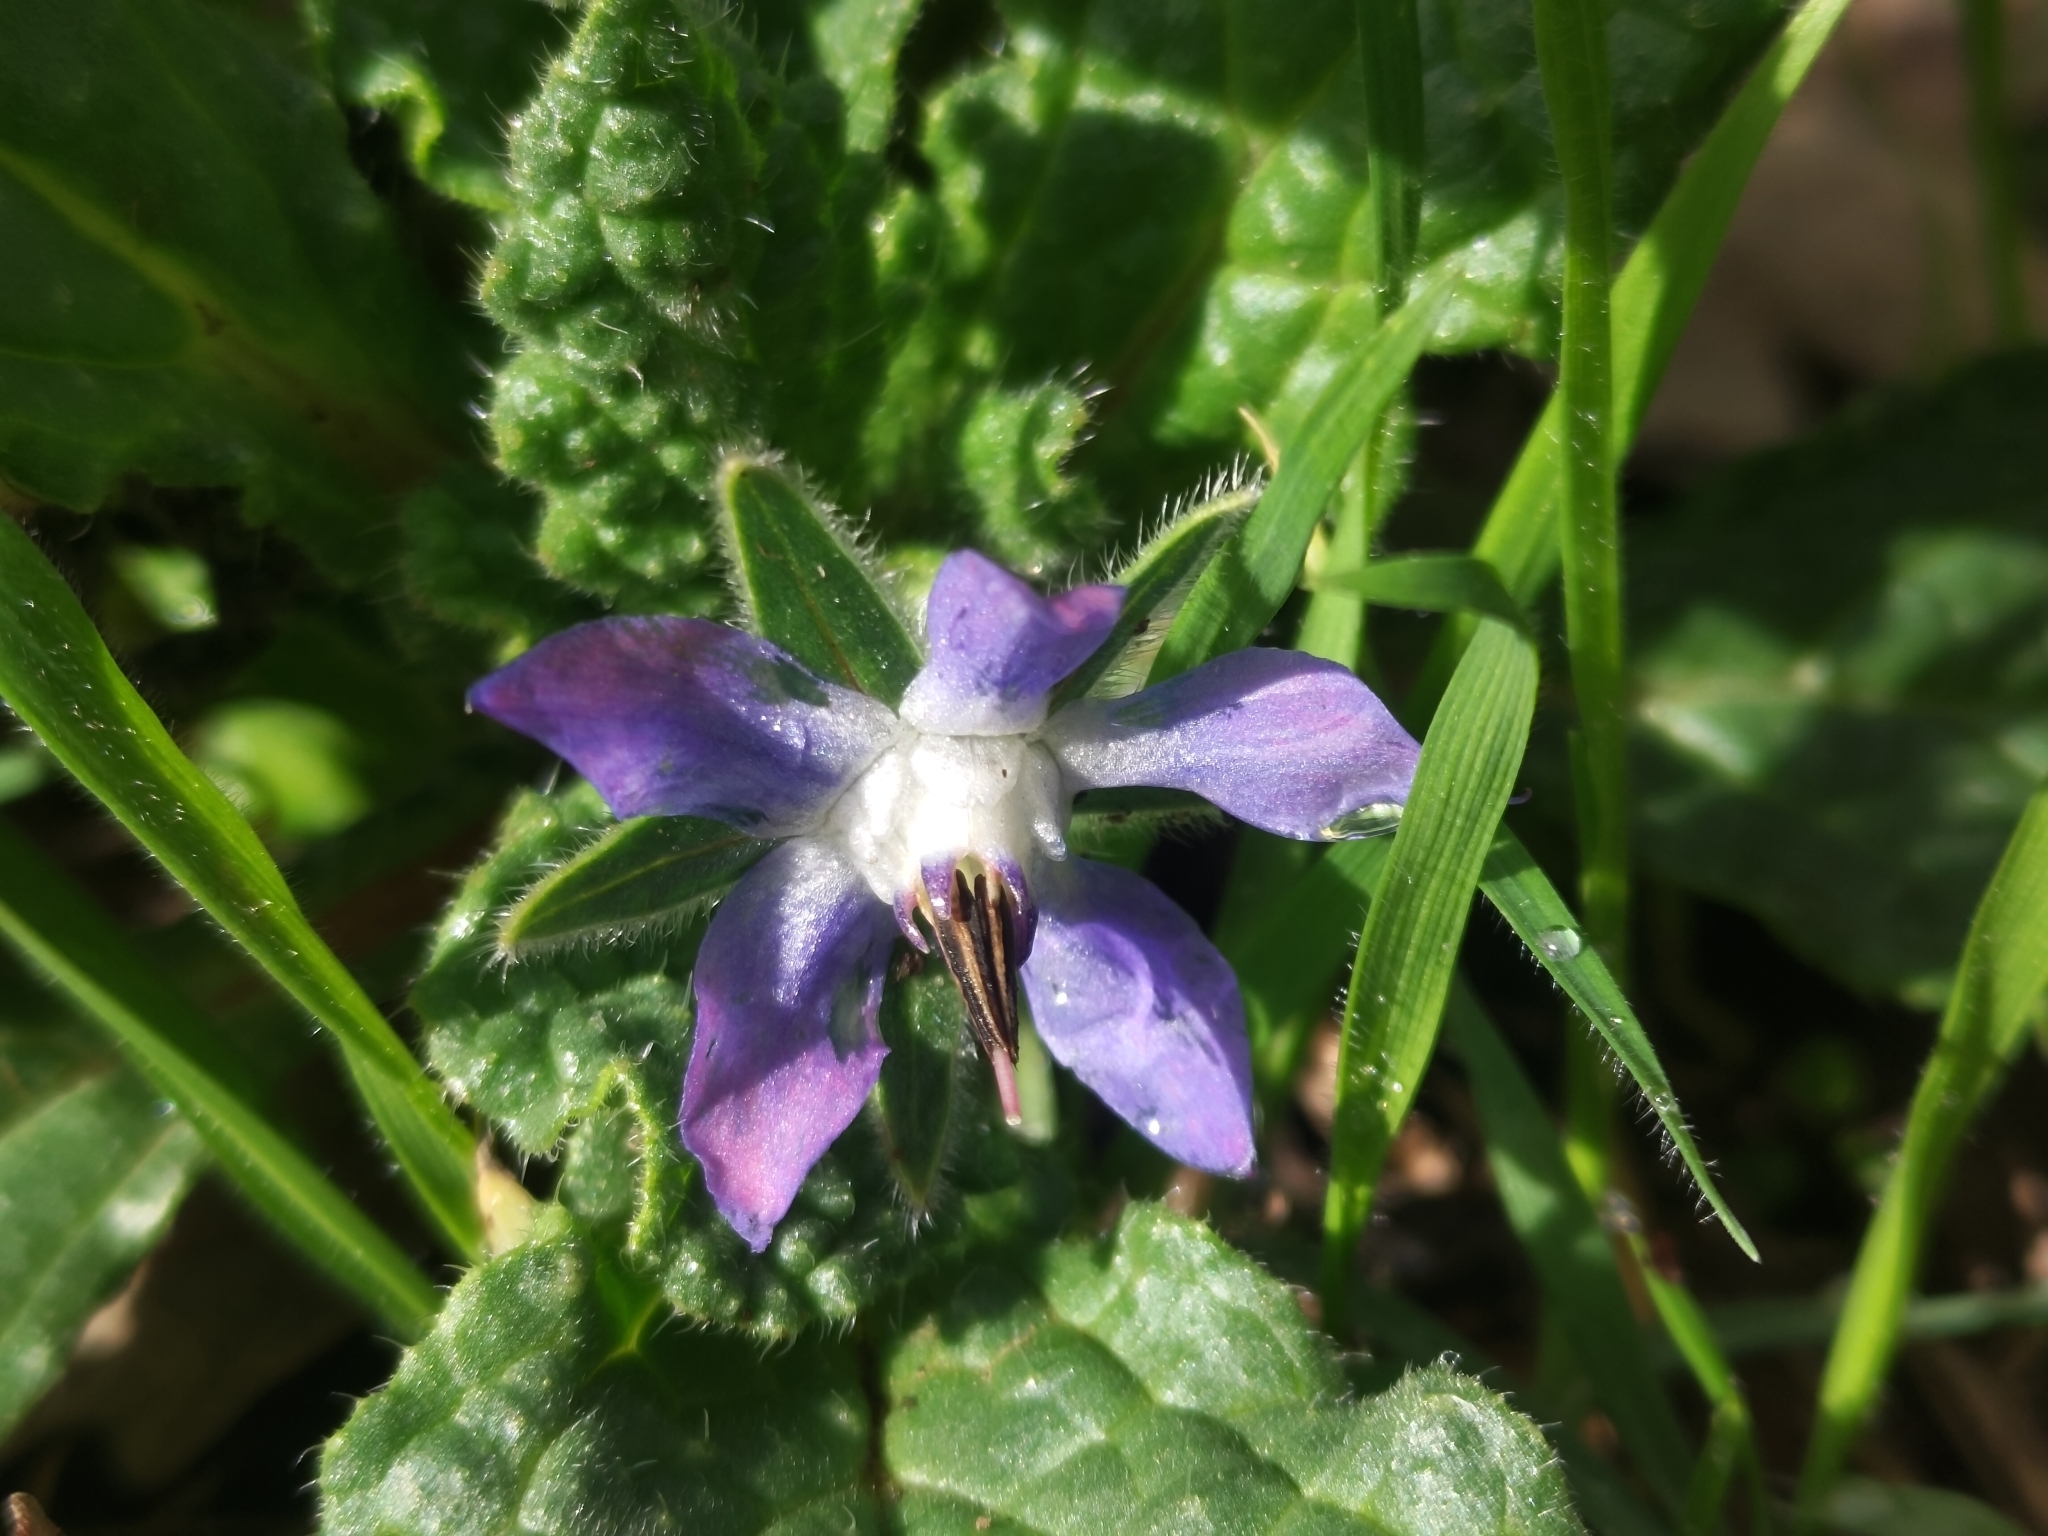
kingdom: Plantae
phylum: Tracheophyta
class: Magnoliopsida
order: Boraginales
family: Boraginaceae
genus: Borago
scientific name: Borago officinalis
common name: Borage
